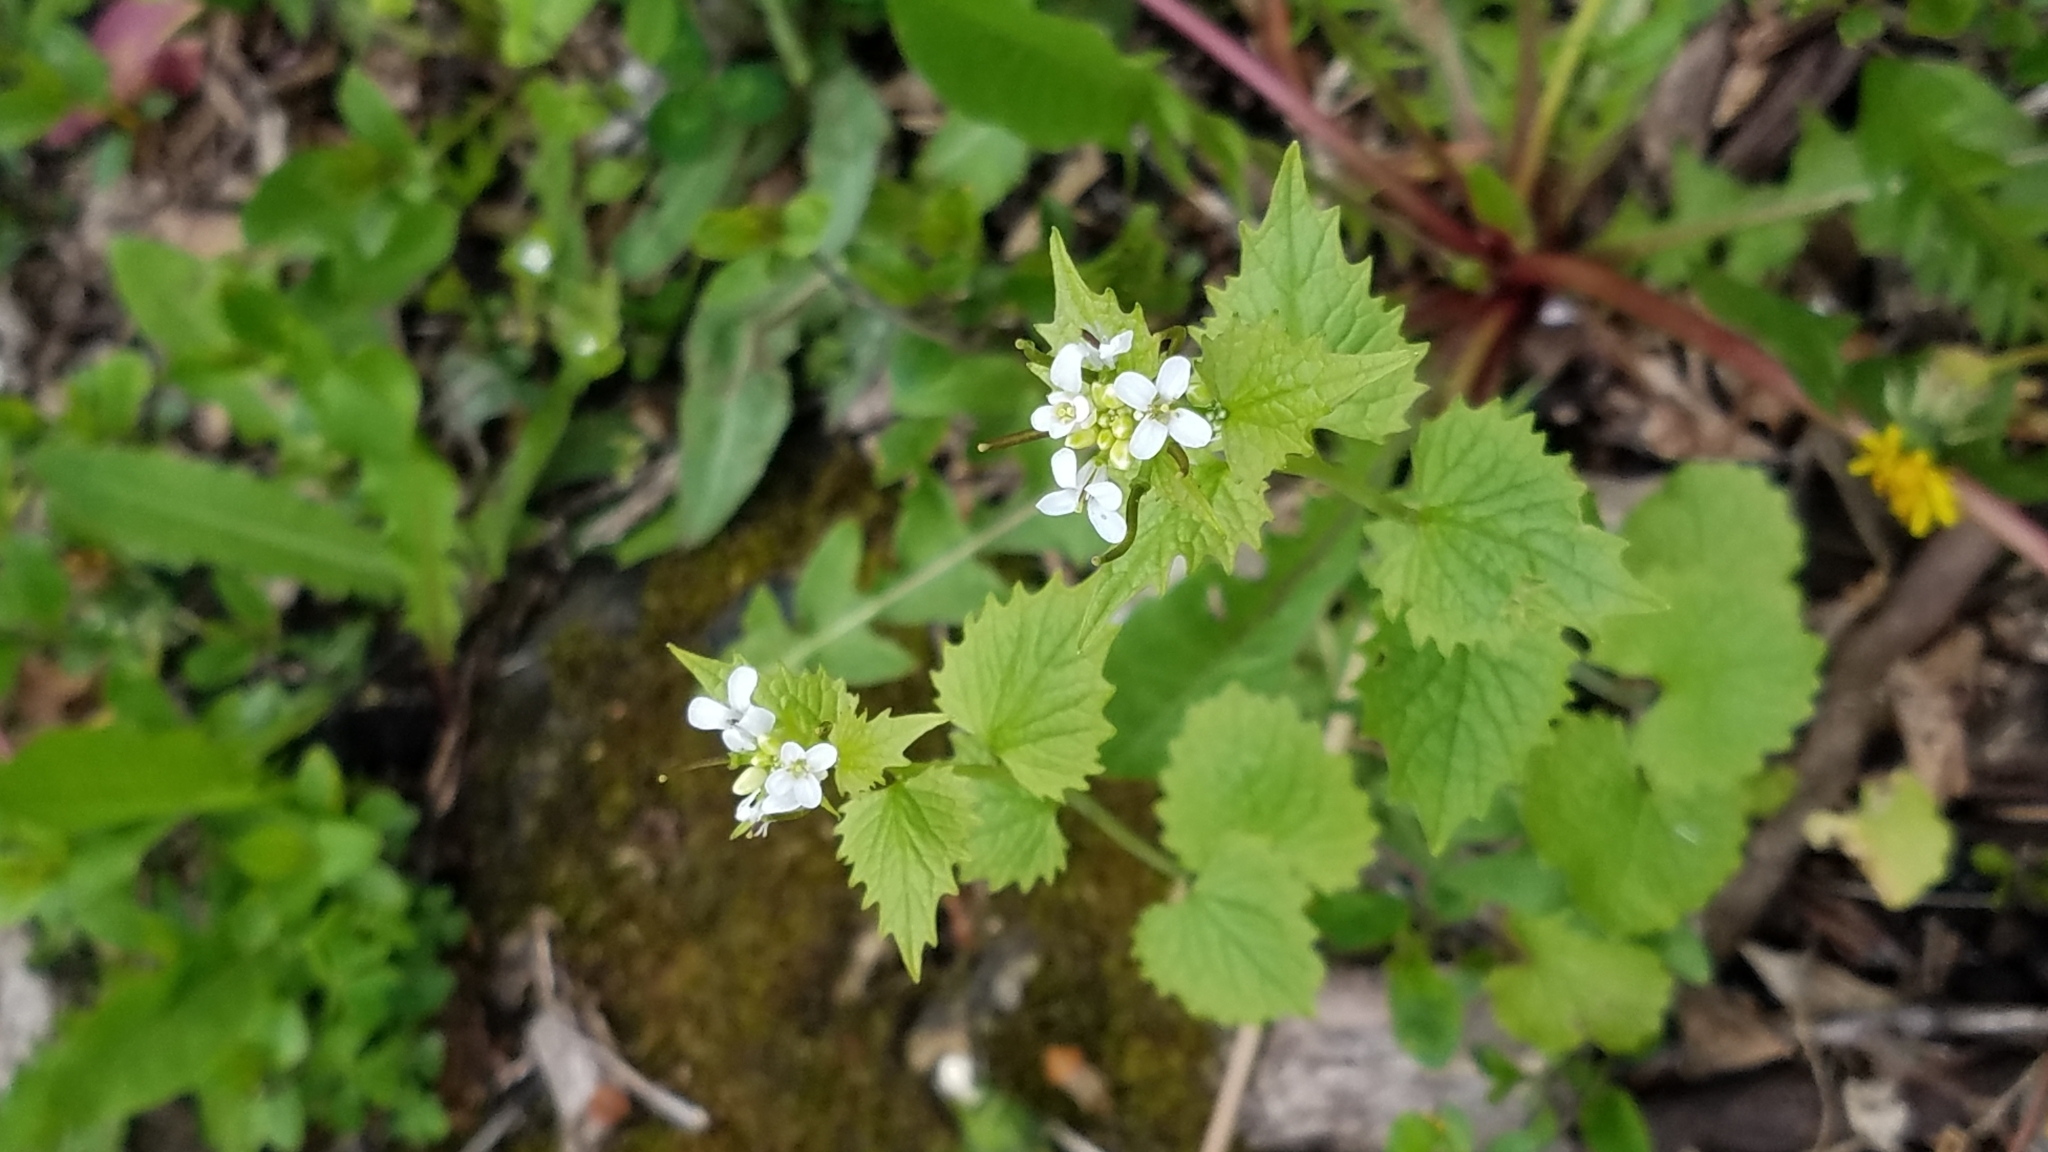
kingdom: Plantae
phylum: Tracheophyta
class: Magnoliopsida
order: Brassicales
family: Brassicaceae
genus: Alliaria
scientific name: Alliaria petiolata
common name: Garlic mustard
